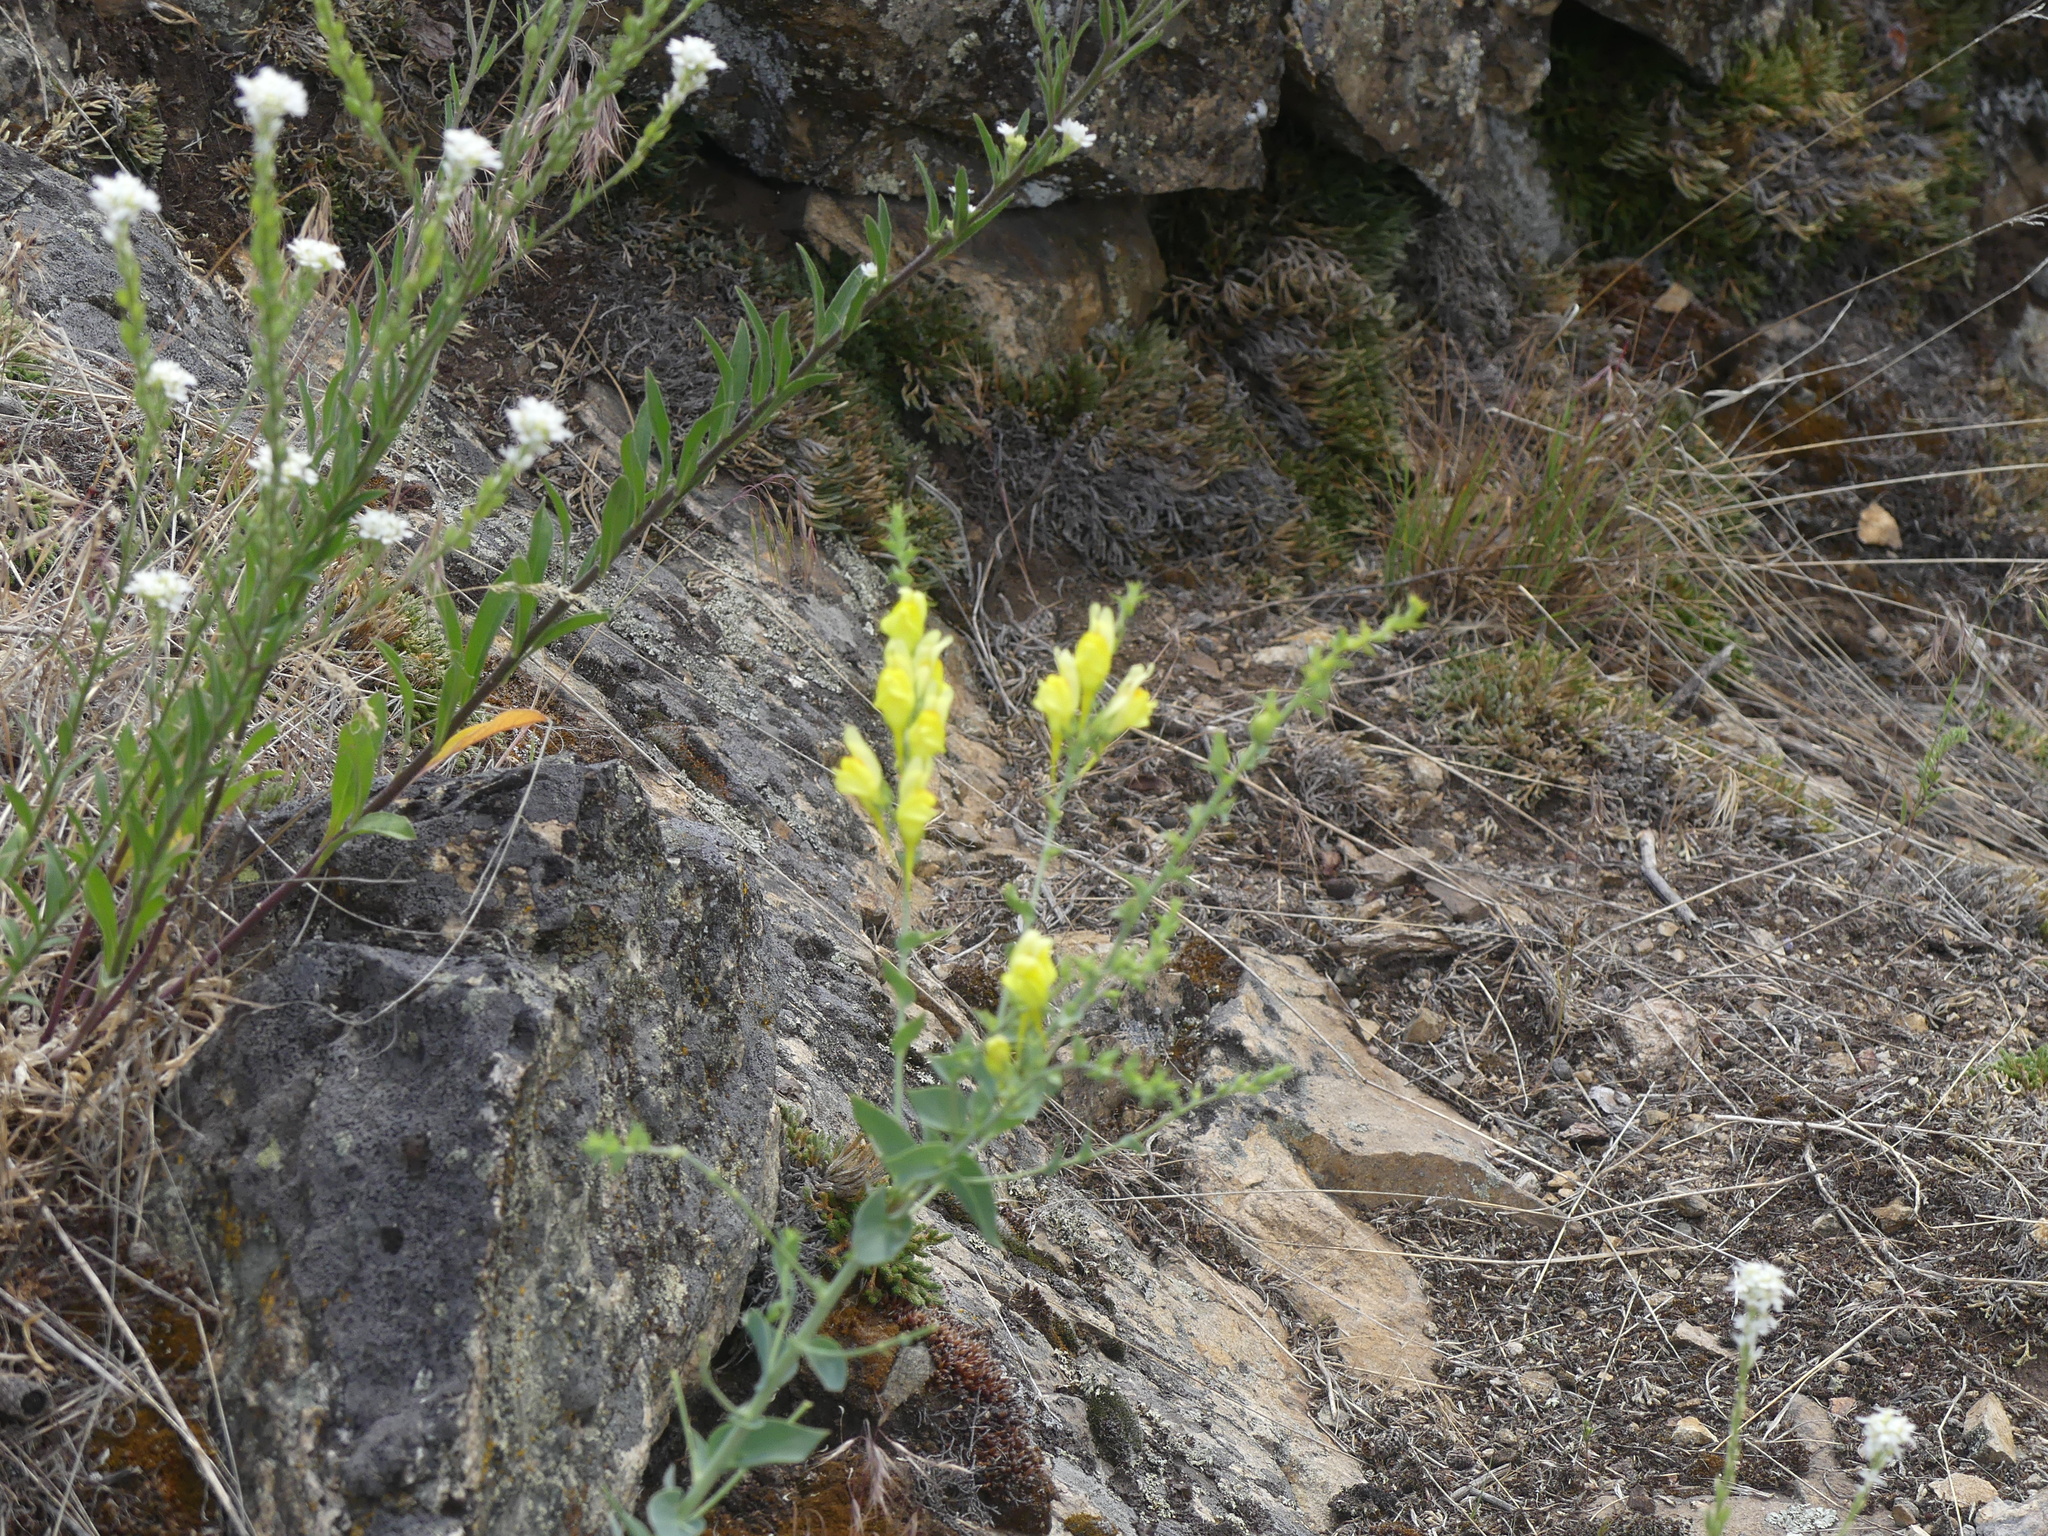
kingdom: Plantae
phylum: Tracheophyta
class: Magnoliopsida
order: Lamiales
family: Plantaginaceae
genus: Linaria
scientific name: Linaria dalmatica
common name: Dalmatian toadflax
